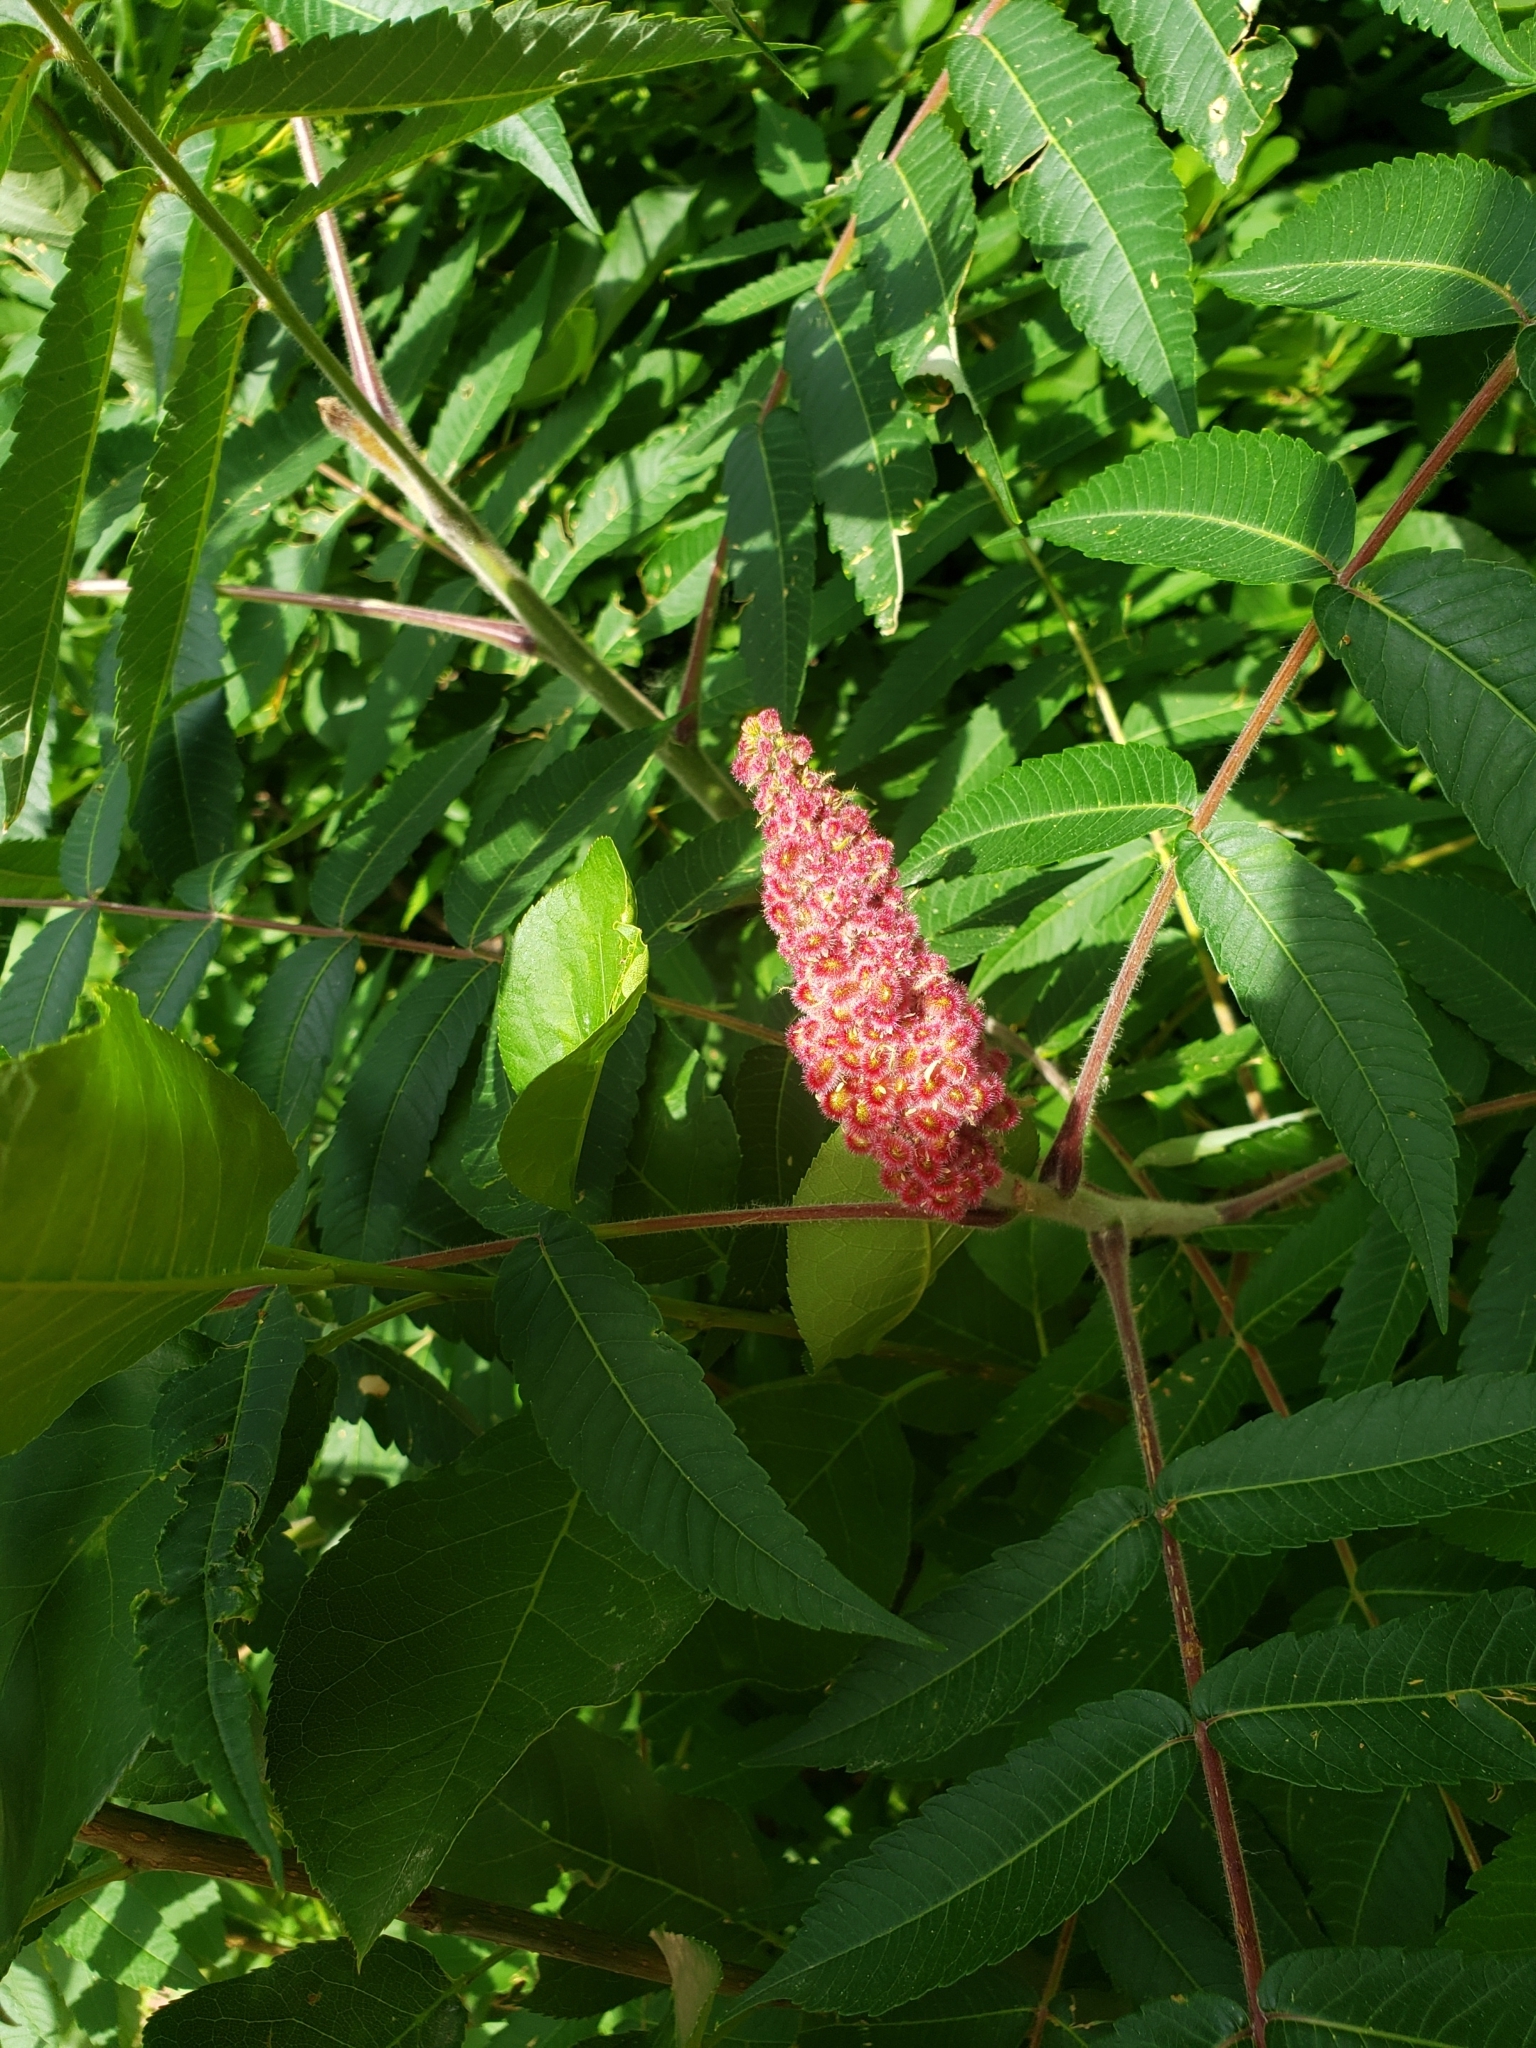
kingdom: Plantae
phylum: Tracheophyta
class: Magnoliopsida
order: Sapindales
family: Anacardiaceae
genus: Rhus
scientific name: Rhus typhina
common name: Staghorn sumac
